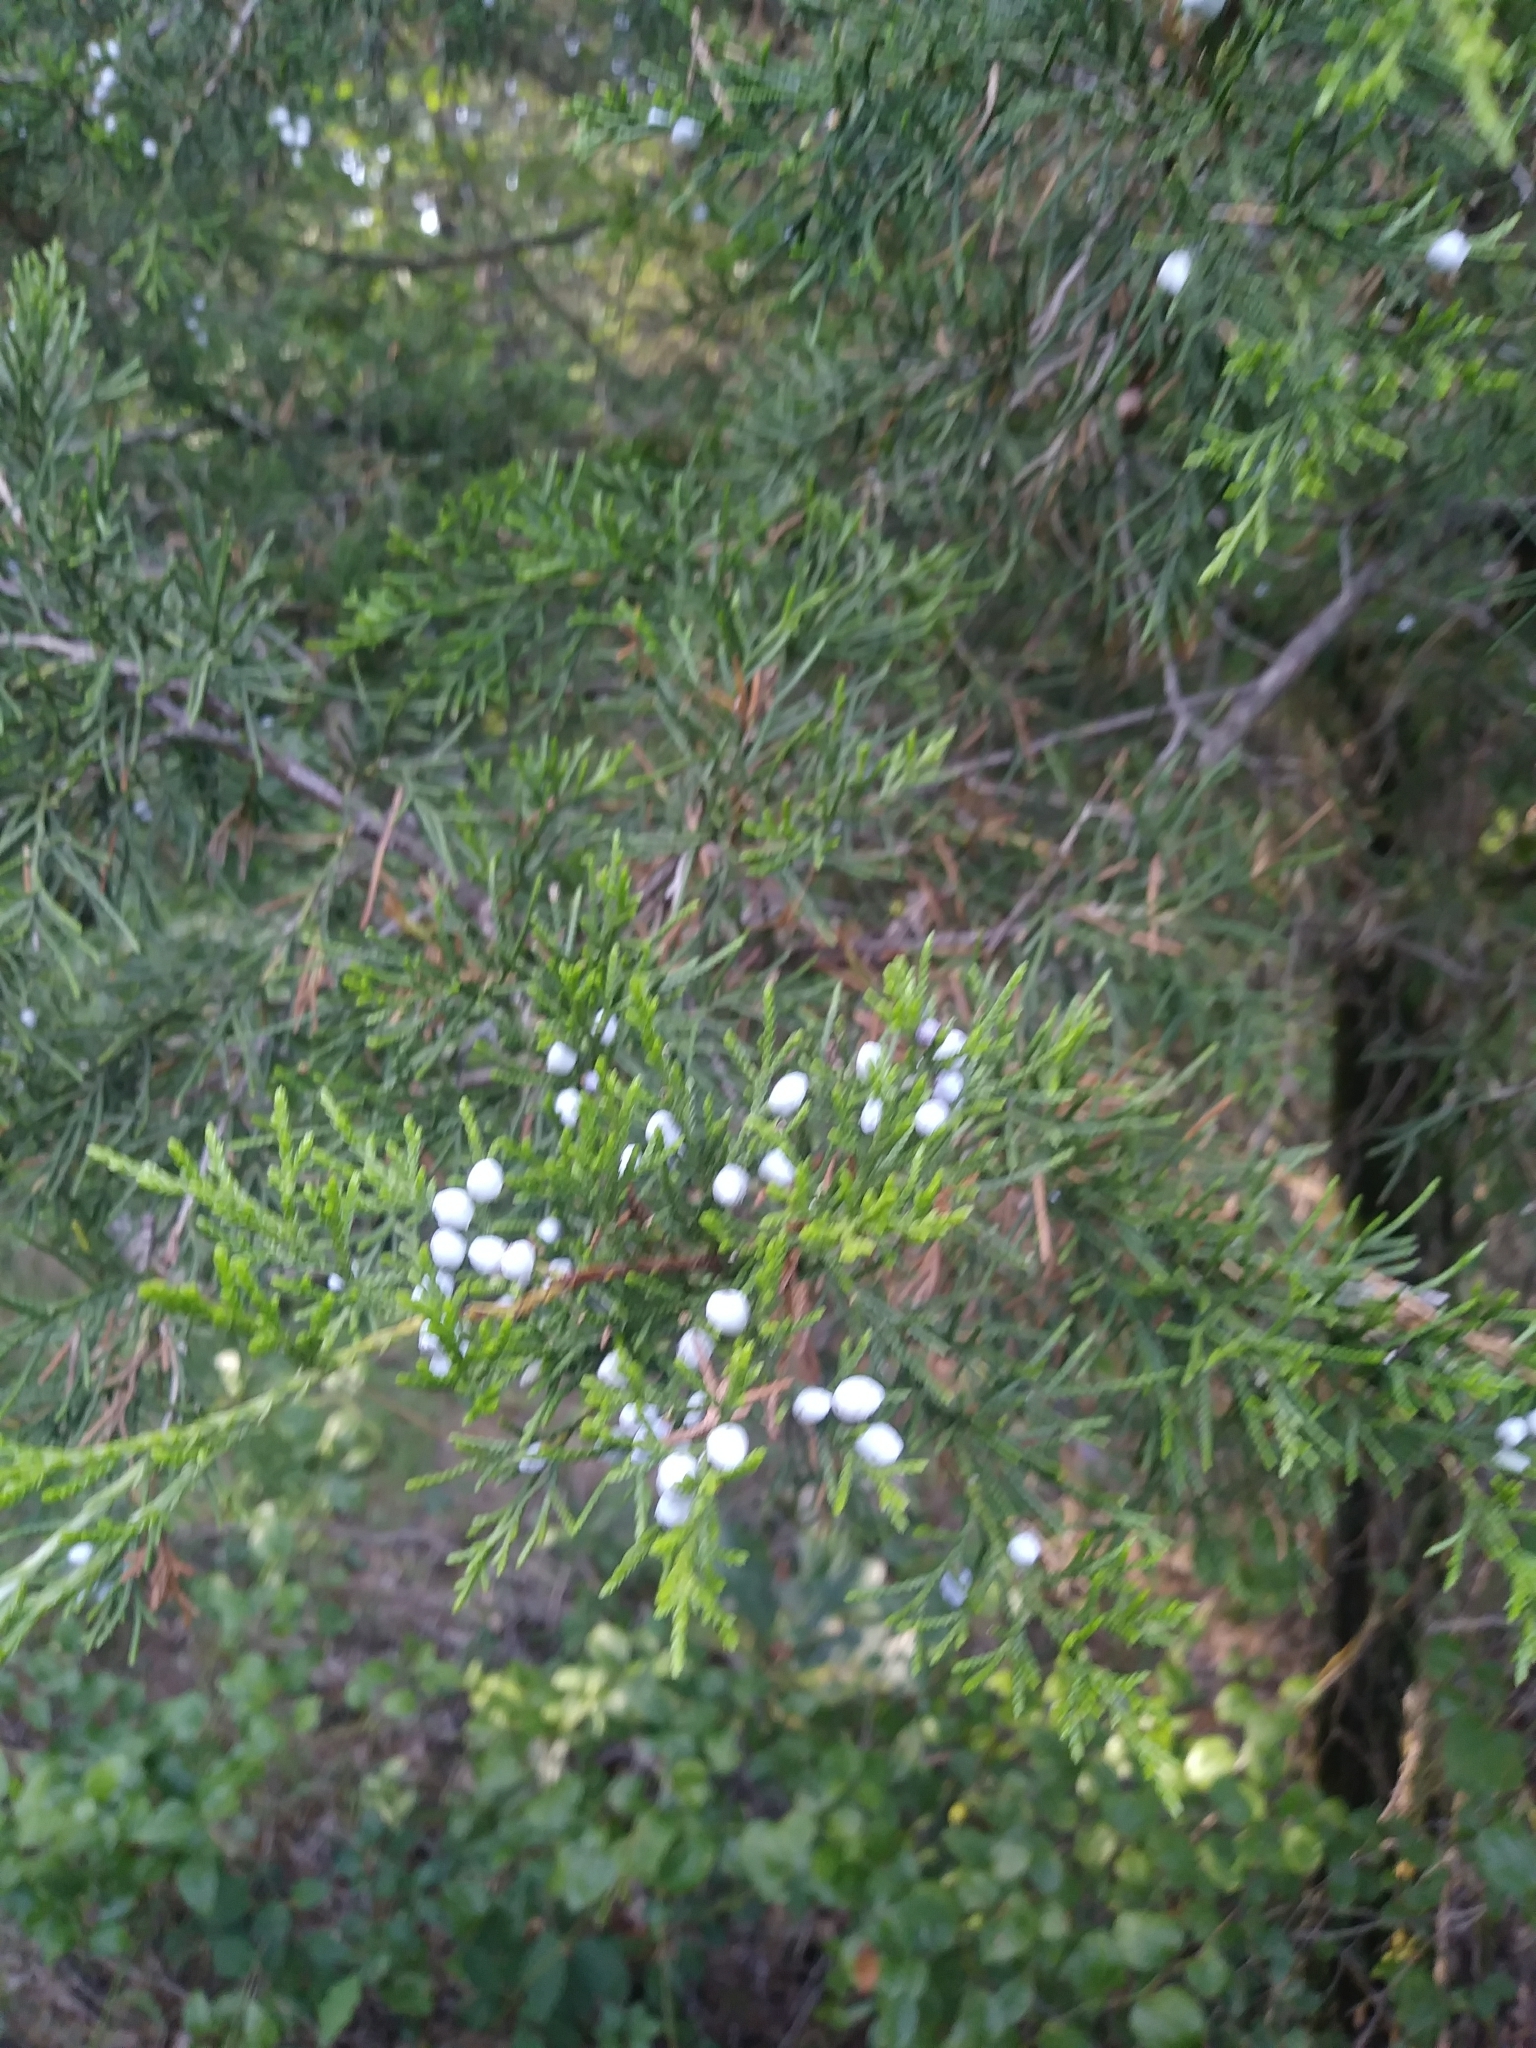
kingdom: Plantae
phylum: Tracheophyta
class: Pinopsida
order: Pinales
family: Cupressaceae
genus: Juniperus
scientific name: Juniperus virginiana
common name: Red juniper
